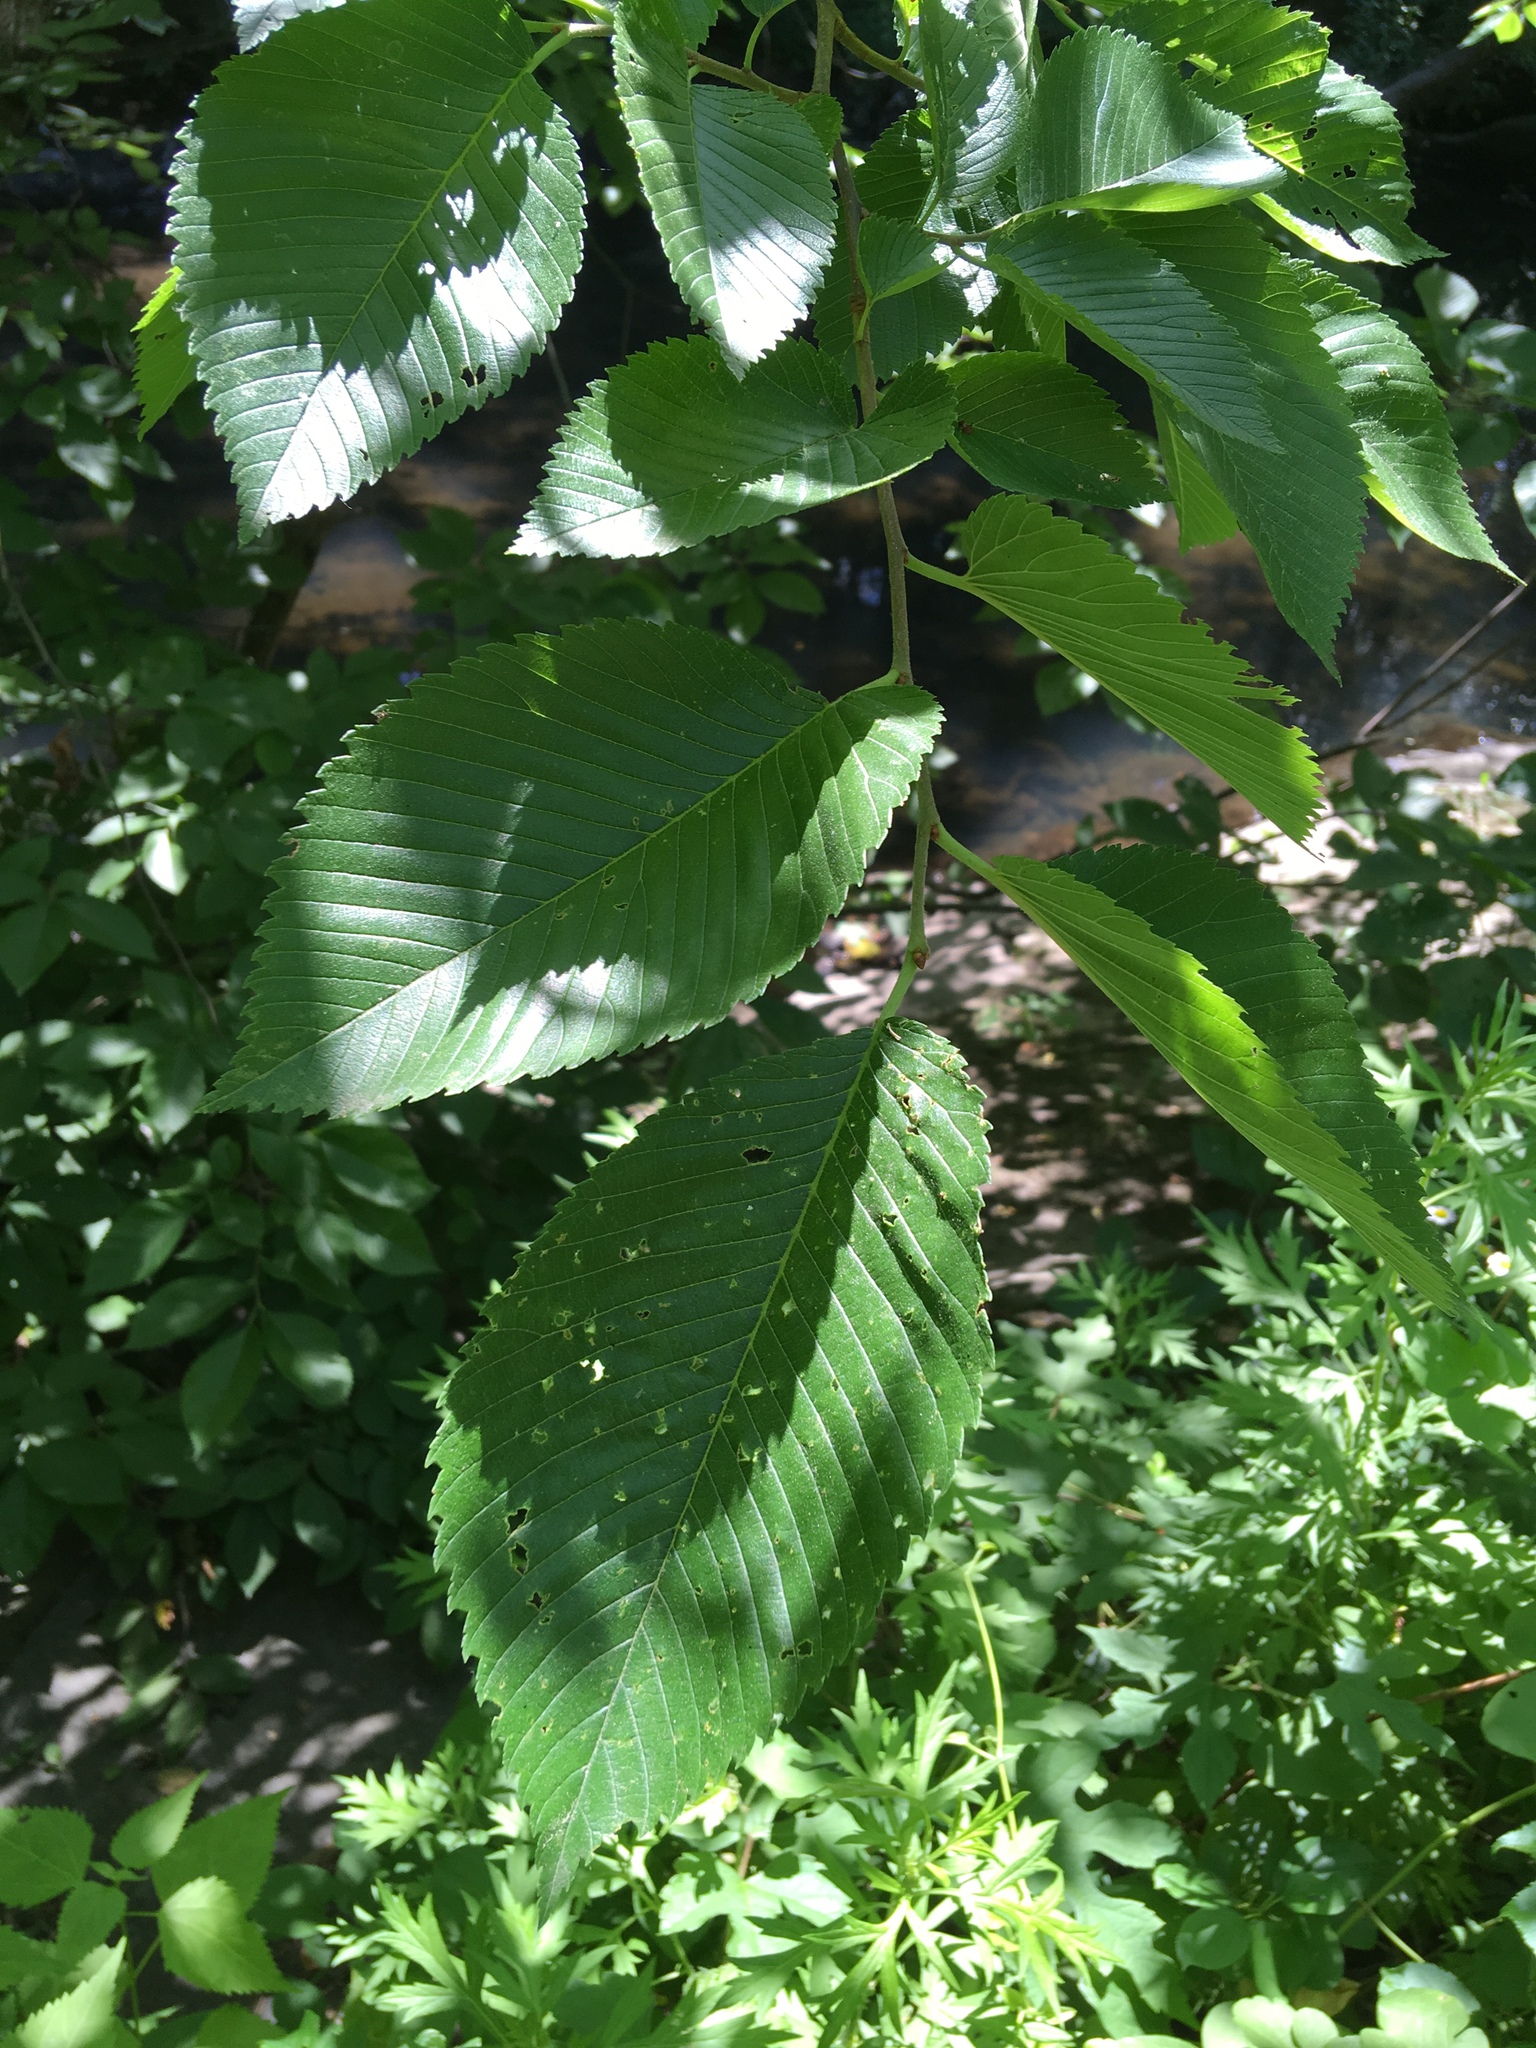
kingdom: Plantae
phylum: Tracheophyta
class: Magnoliopsida
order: Rosales
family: Ulmaceae
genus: Ulmus
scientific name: Ulmus americana
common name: American elm
